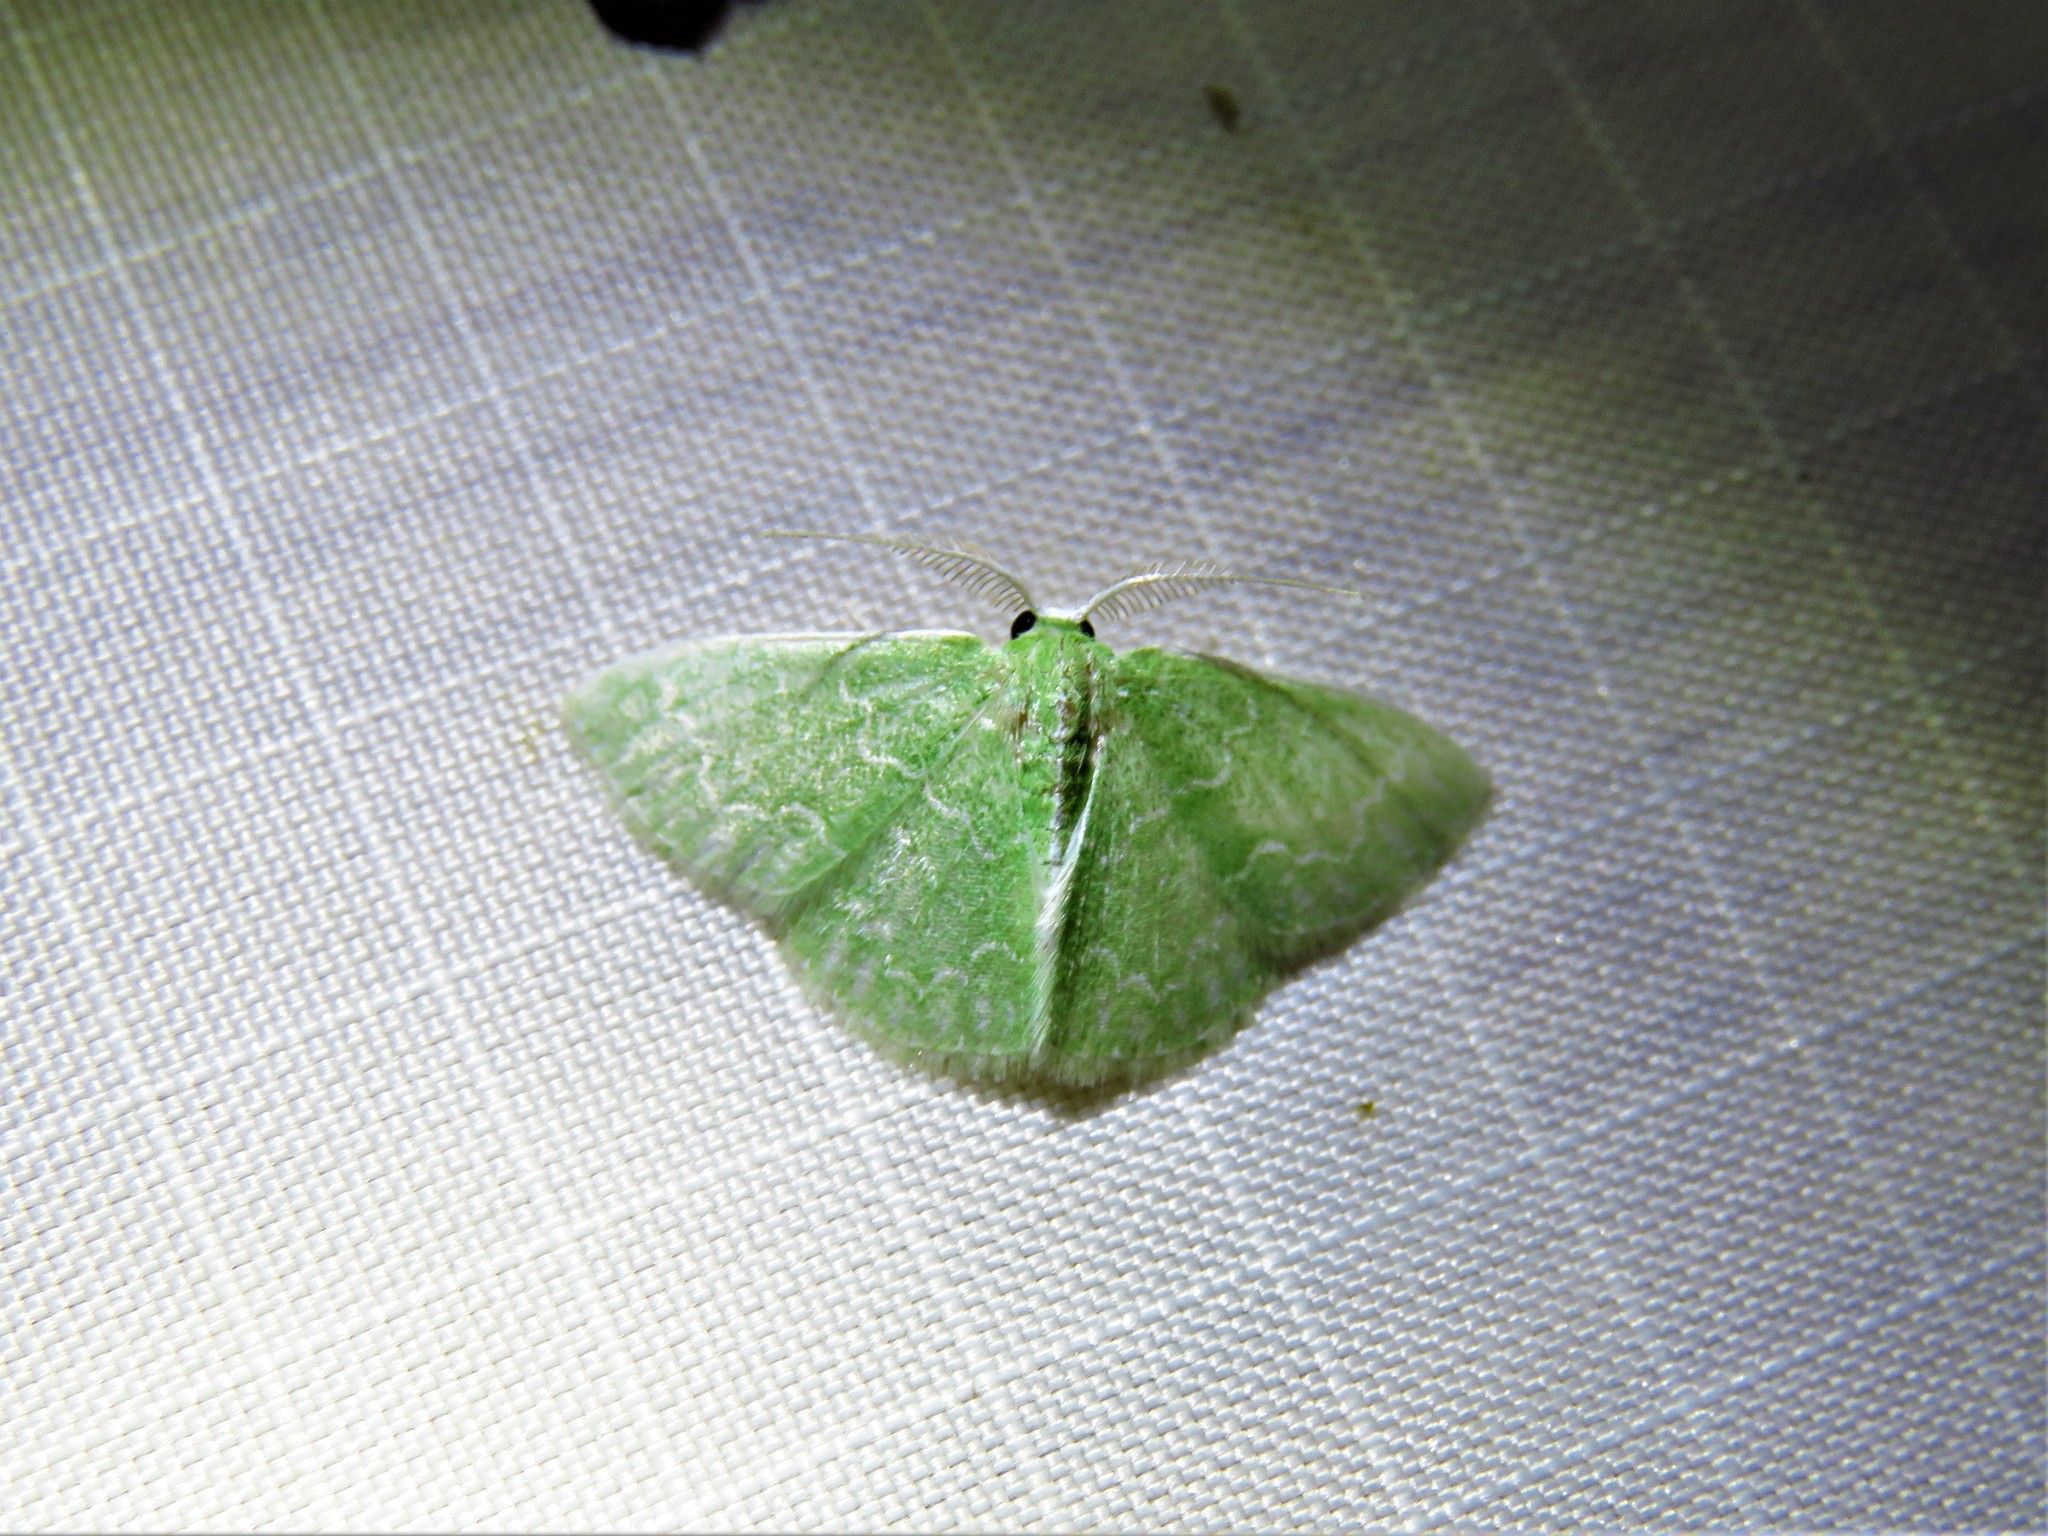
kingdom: Animalia
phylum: Arthropoda
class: Insecta
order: Lepidoptera
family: Geometridae
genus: Synchlora
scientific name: Synchlora frondaria
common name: Southern emerald
